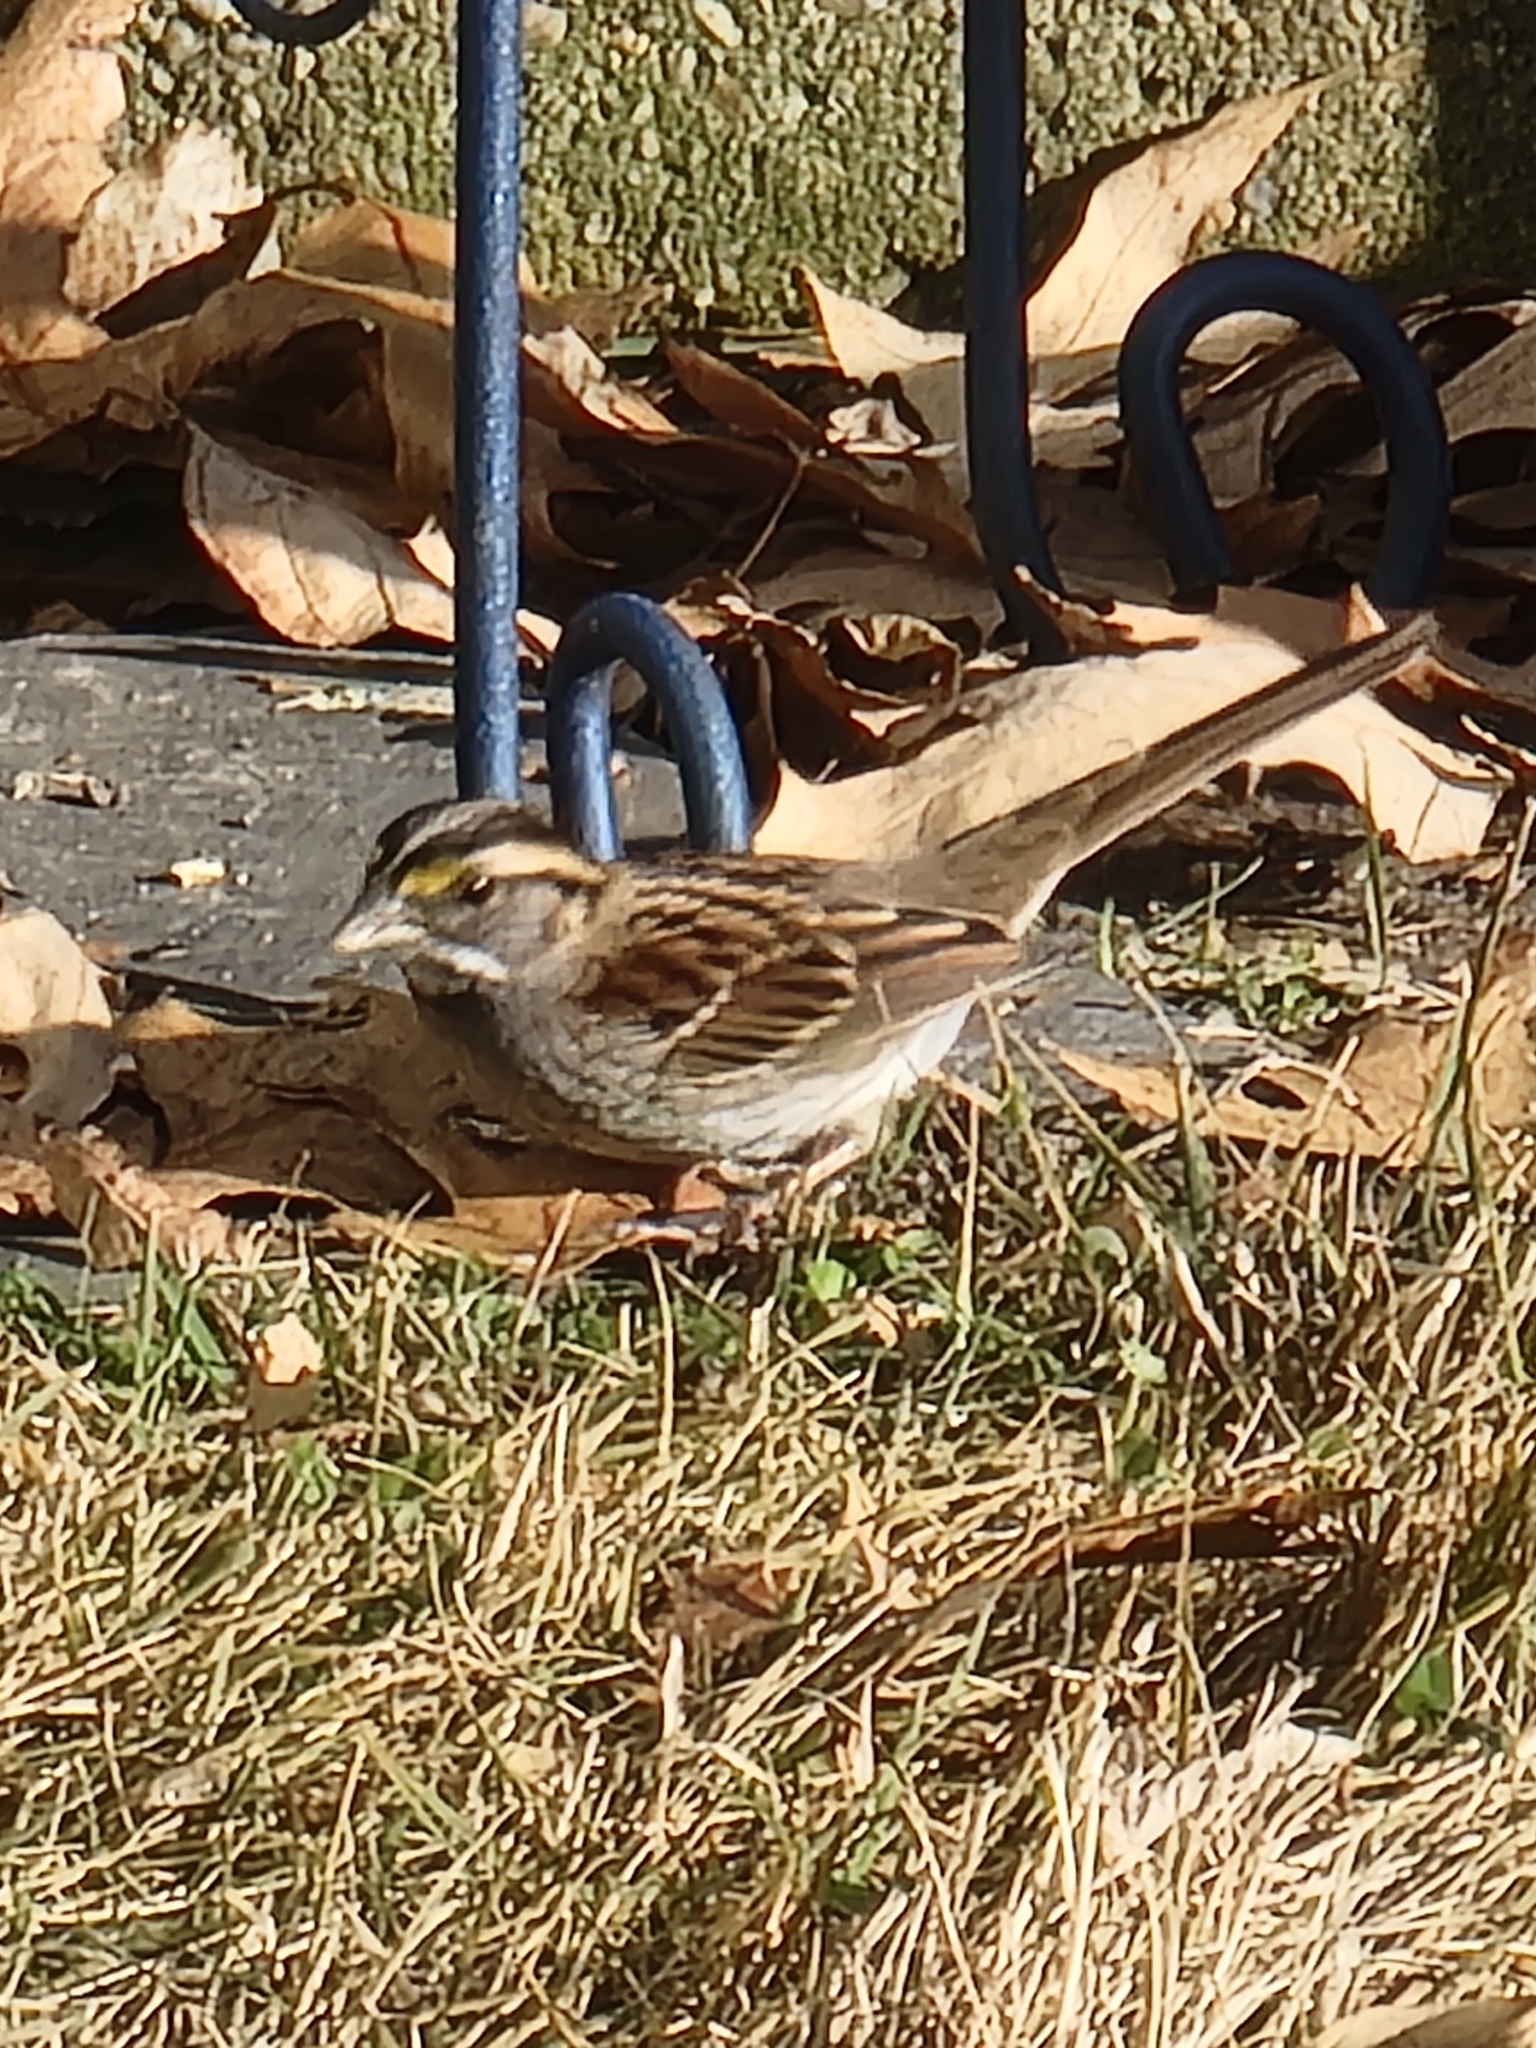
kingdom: Animalia
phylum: Chordata
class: Aves
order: Passeriformes
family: Passerellidae
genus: Zonotrichia
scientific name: Zonotrichia albicollis
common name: White-throated sparrow
